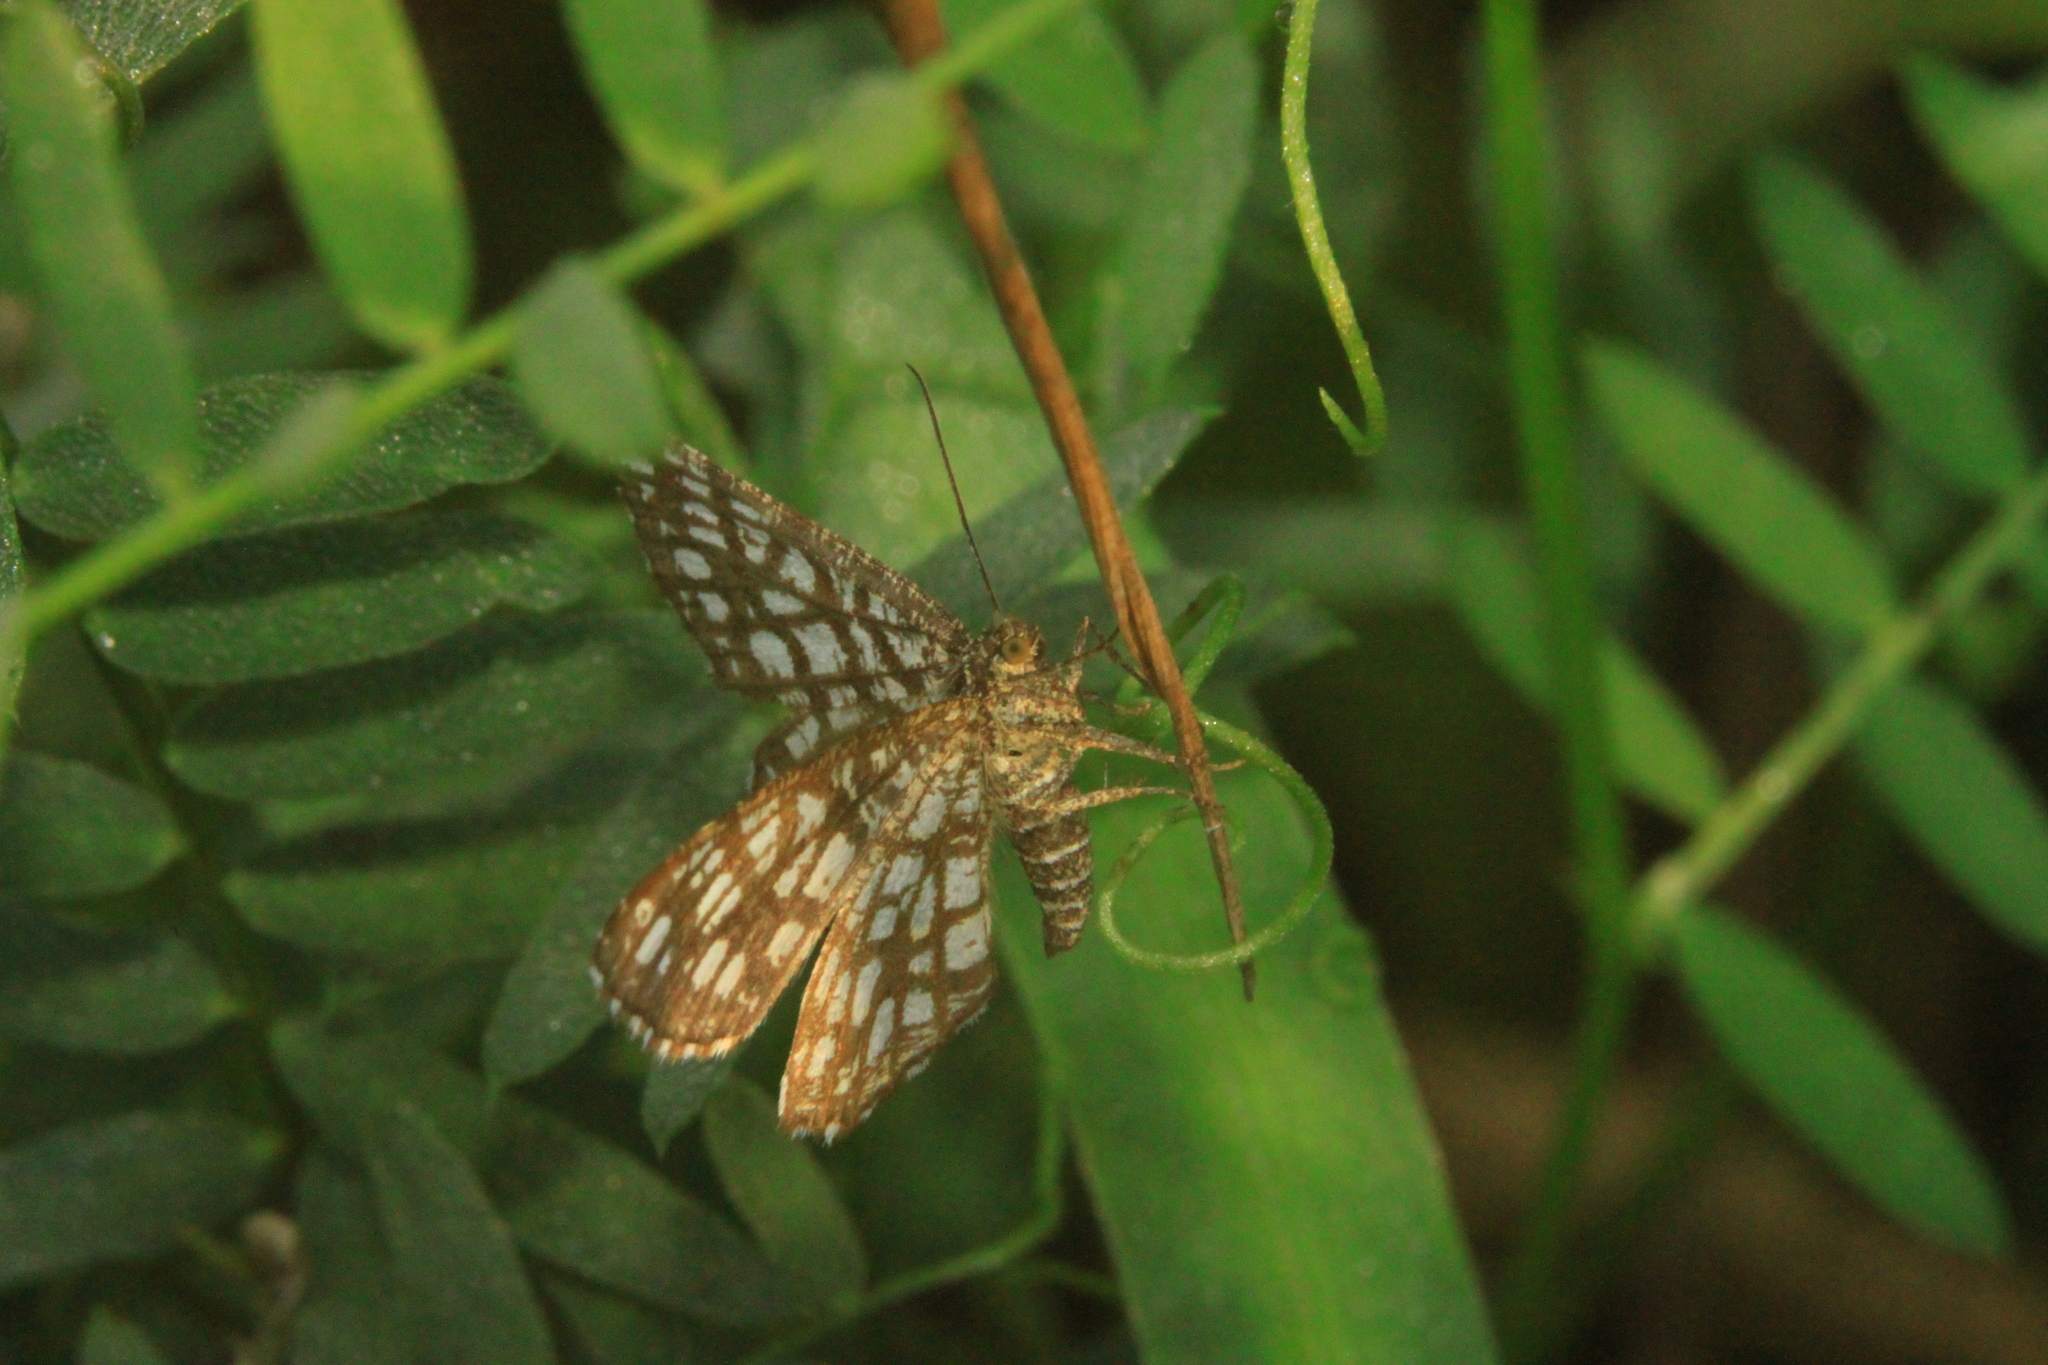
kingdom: Animalia
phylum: Arthropoda
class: Insecta
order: Lepidoptera
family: Geometridae
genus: Chiasmia
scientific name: Chiasmia clathrata
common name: Latticed heath
